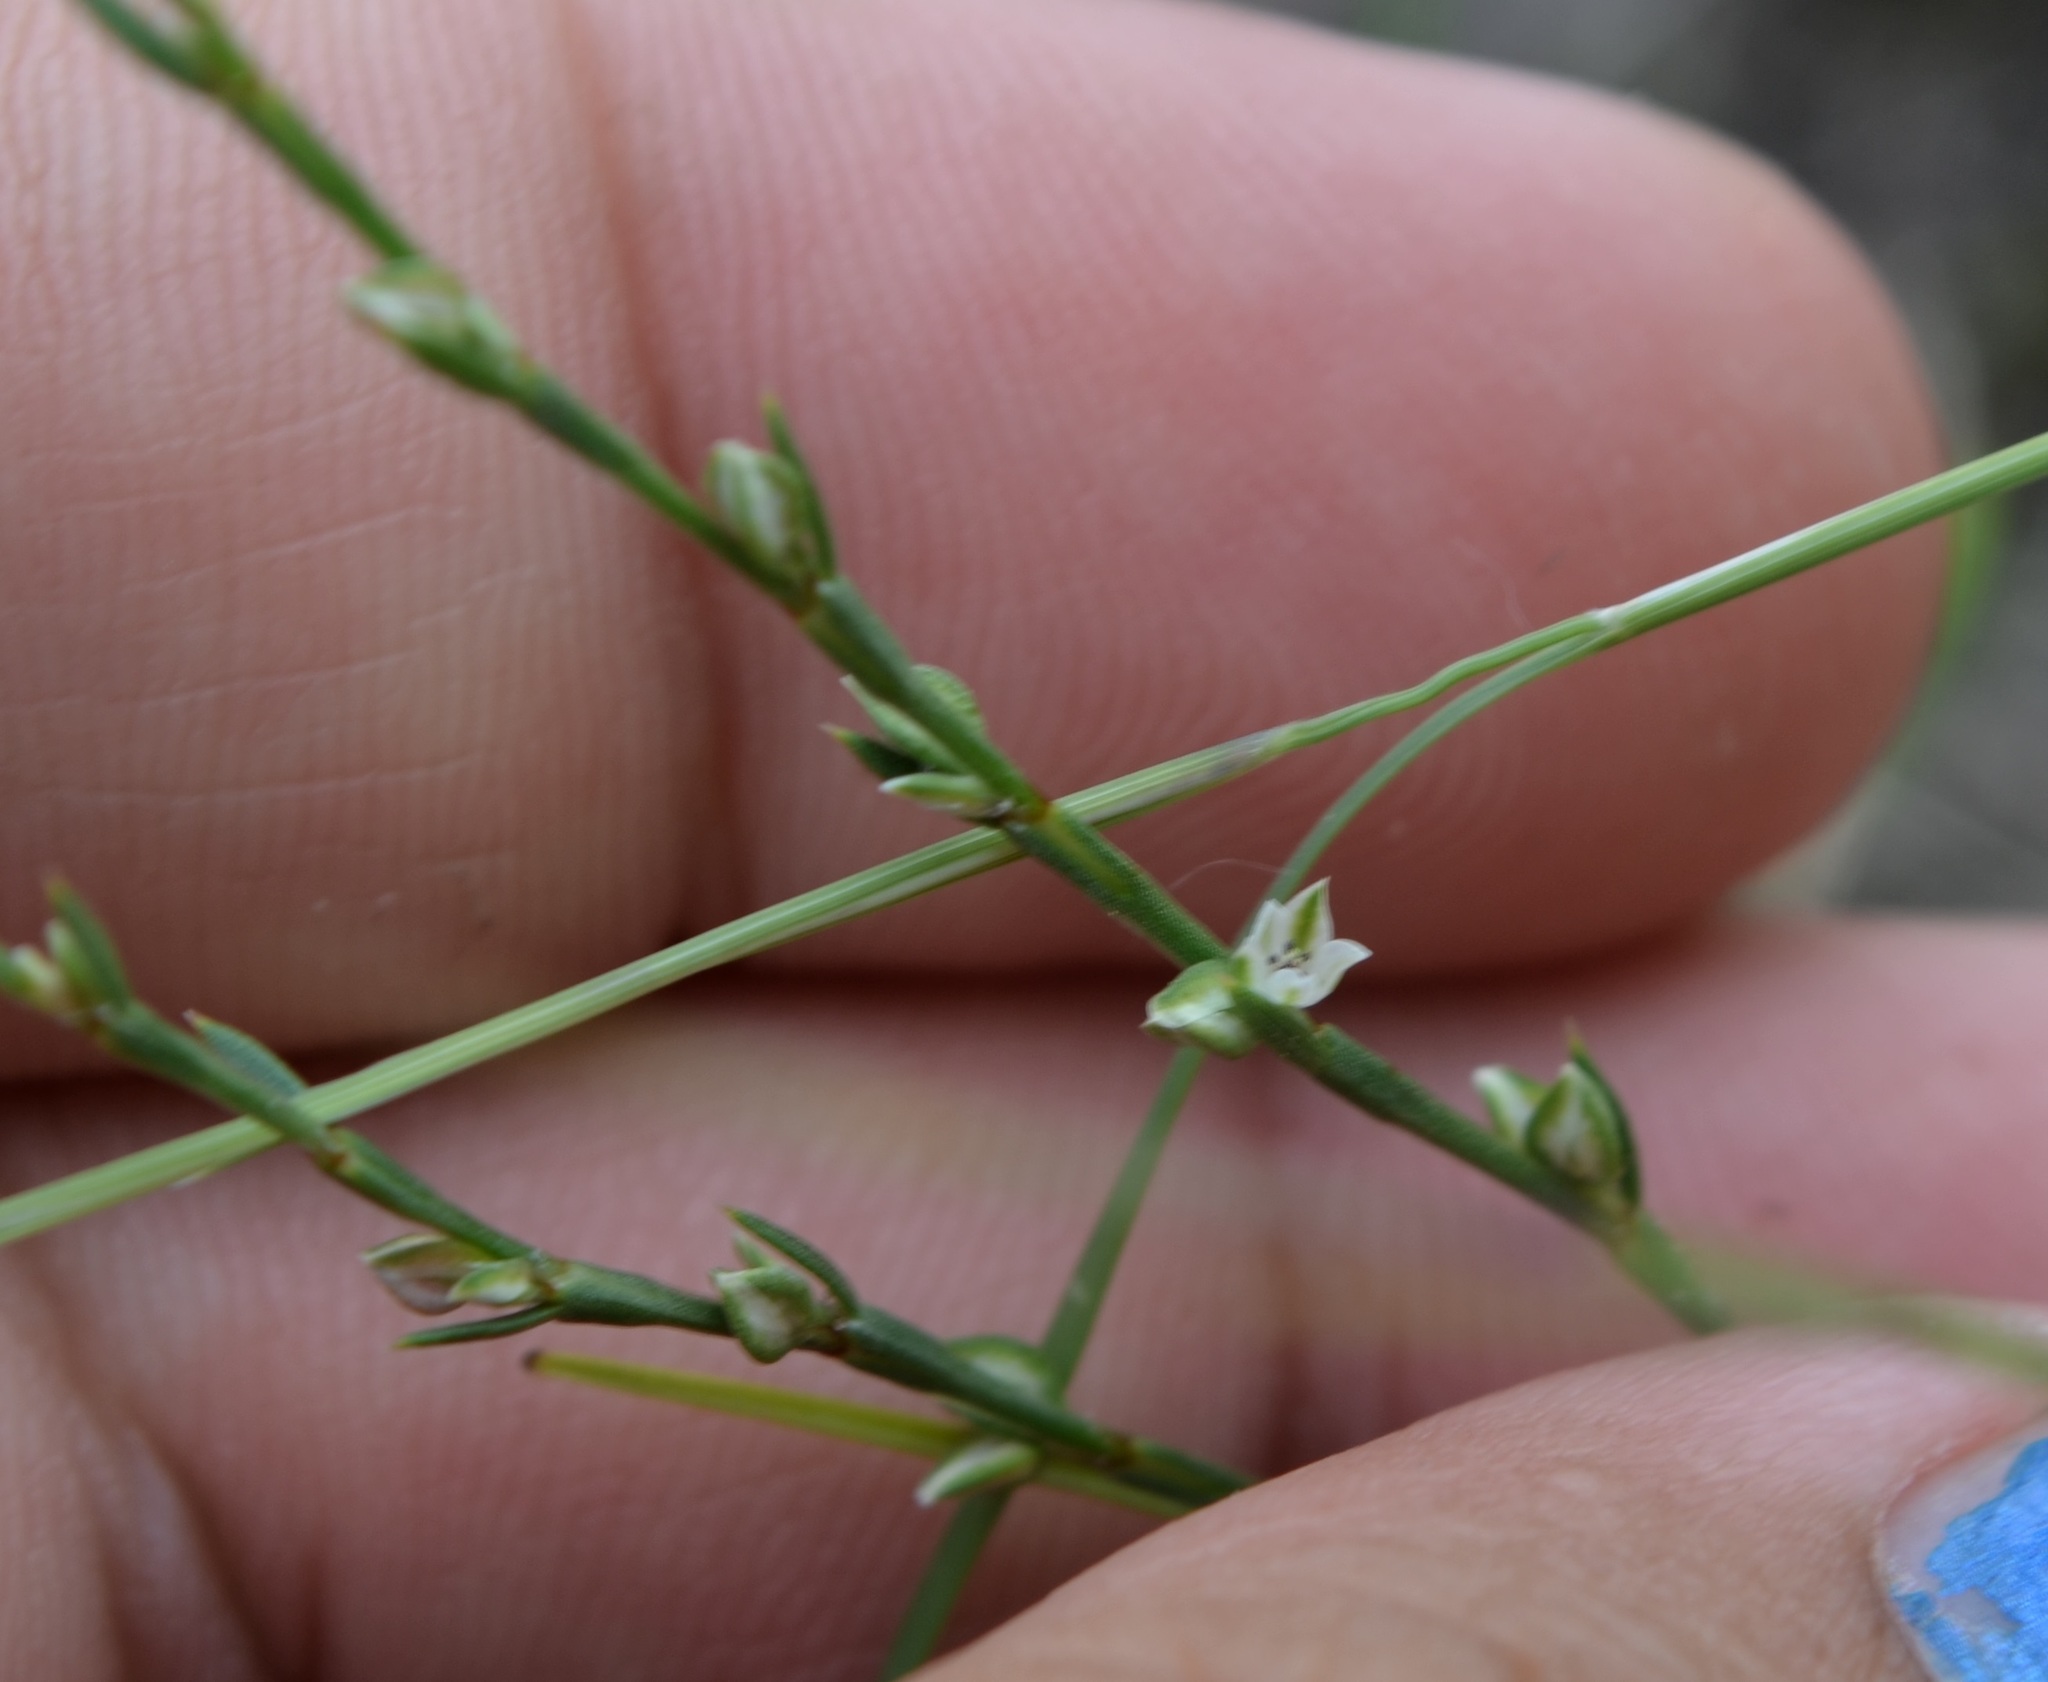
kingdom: Plantae
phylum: Tracheophyta
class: Magnoliopsida
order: Caryophyllales
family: Polygonaceae
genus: Polygonum
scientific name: Polygonum tenue
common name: Pleat-leaved knotweed
